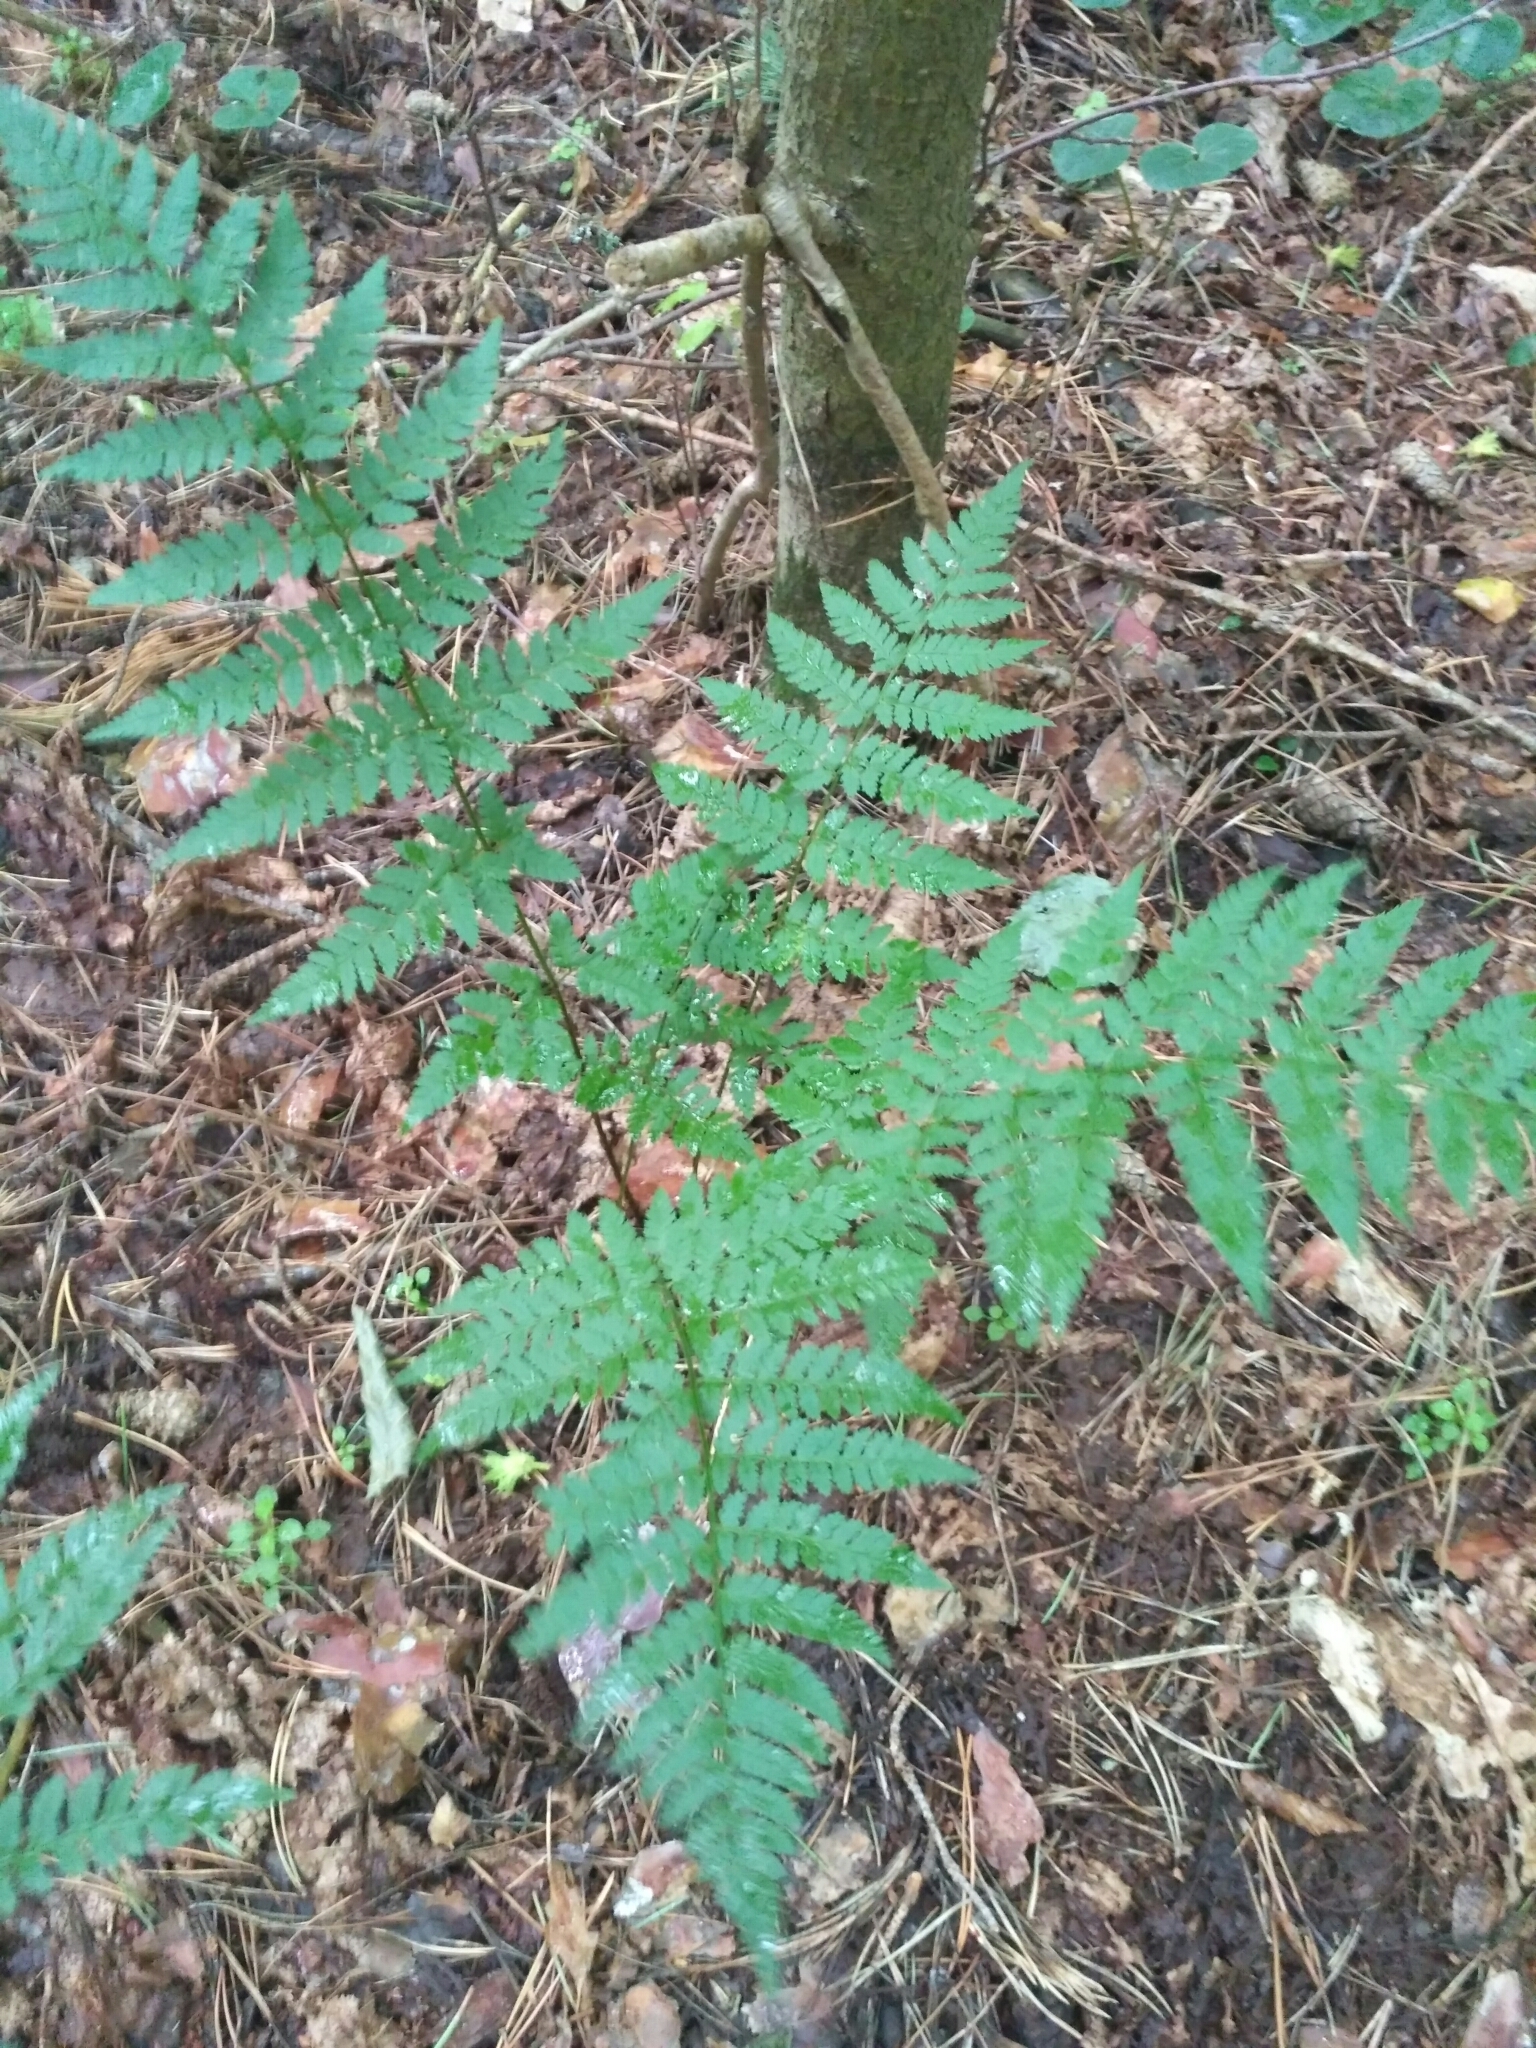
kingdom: Plantae
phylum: Tracheophyta
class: Polypodiopsida
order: Polypodiales
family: Dryopteridaceae
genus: Dryopteris
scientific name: Dryopteris carthusiana
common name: Narrow buckler-fern
